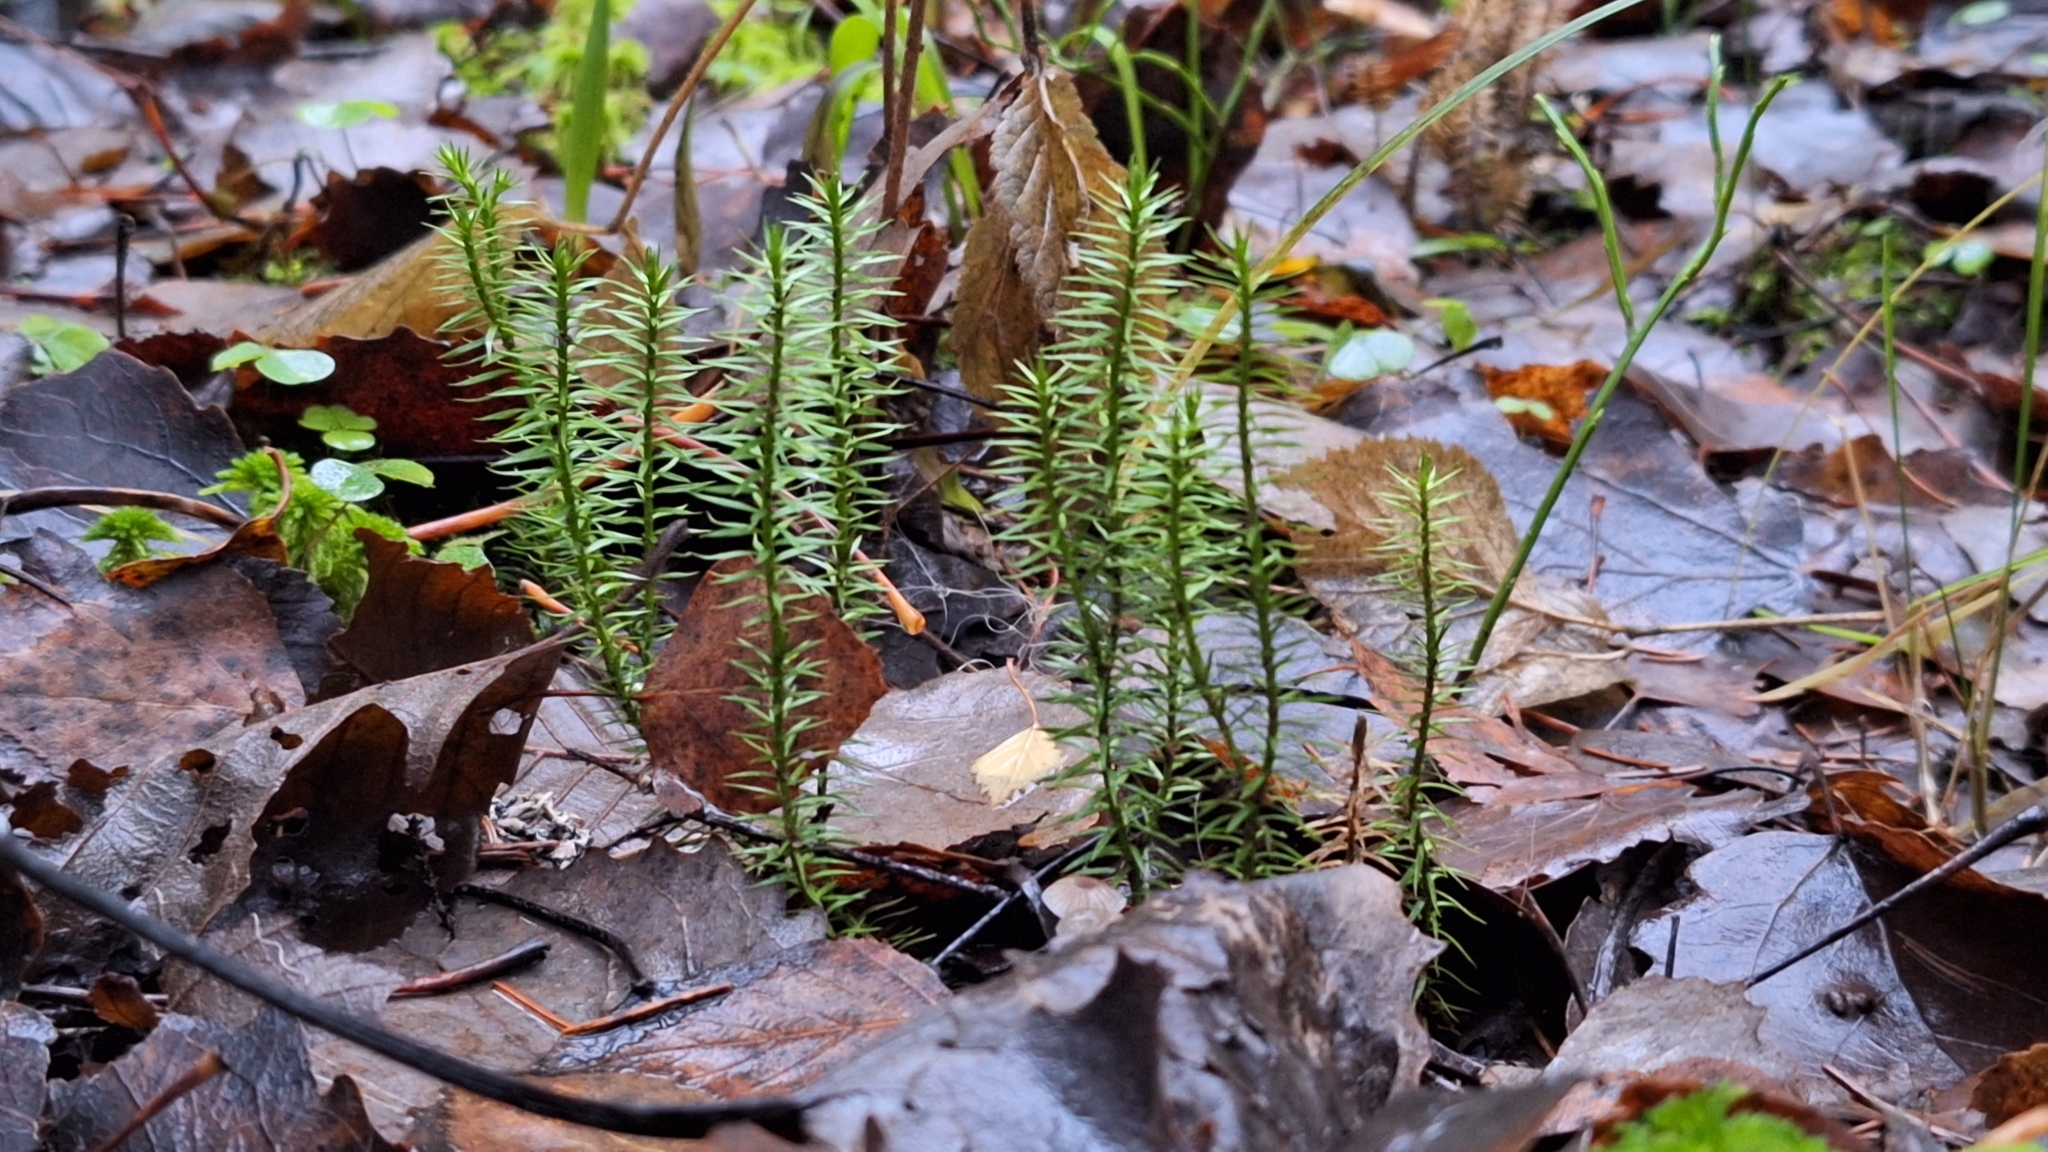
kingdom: Plantae
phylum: Tracheophyta
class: Lycopodiopsida
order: Lycopodiales
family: Lycopodiaceae
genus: Spinulum
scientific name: Spinulum annotinum
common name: Interrupted club-moss
